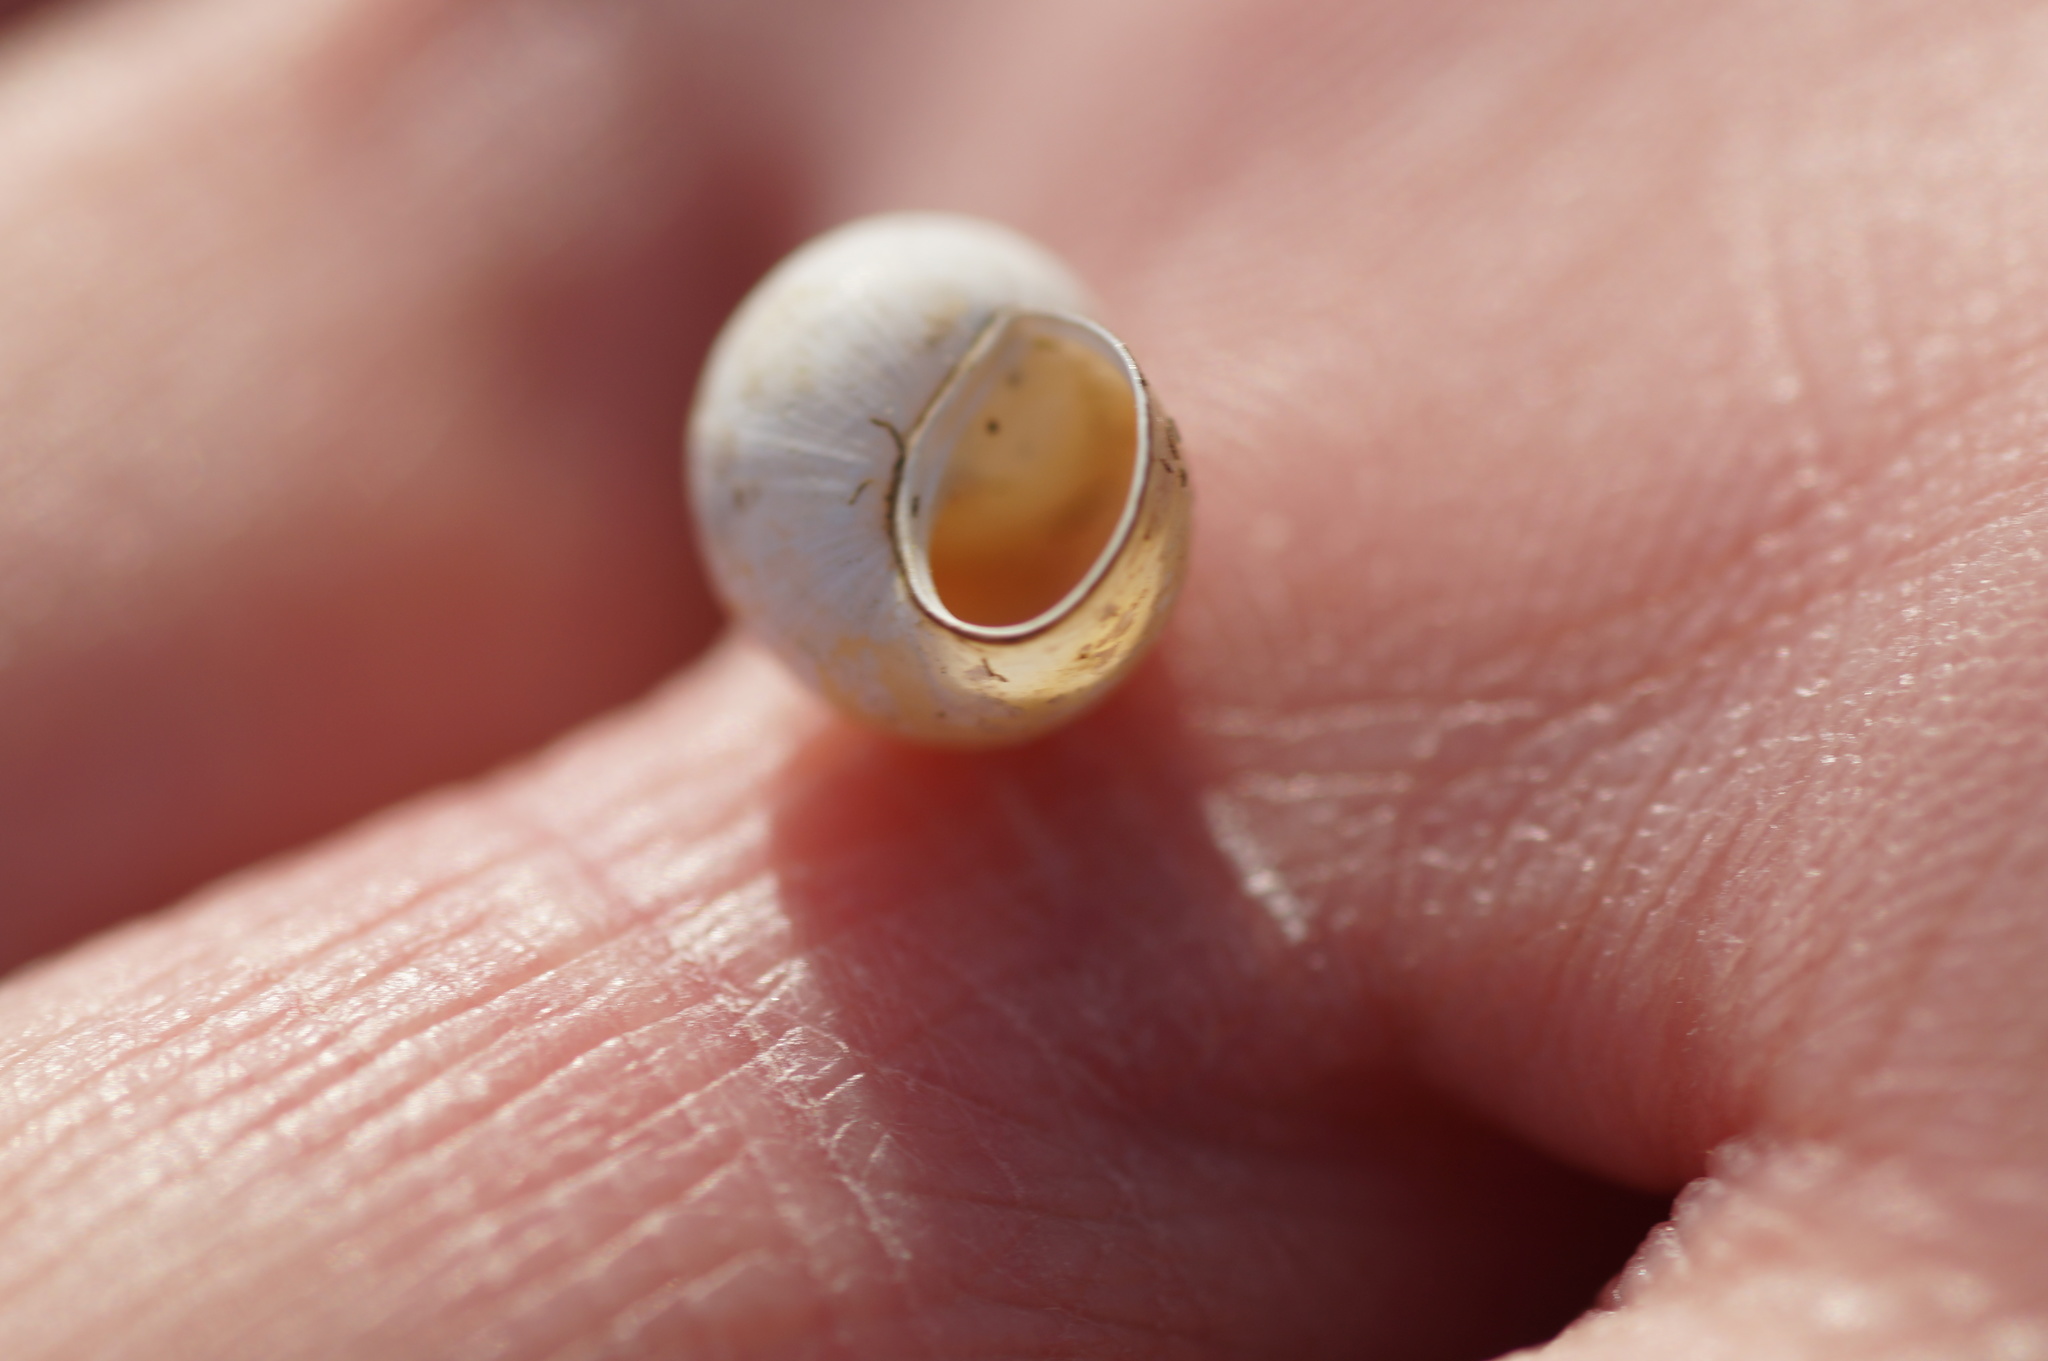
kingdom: Animalia
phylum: Mollusca
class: Gastropoda
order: Littorinimorpha
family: Bithyniidae
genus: Bithynia
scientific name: Bithynia tentaculata
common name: Common bithynia
